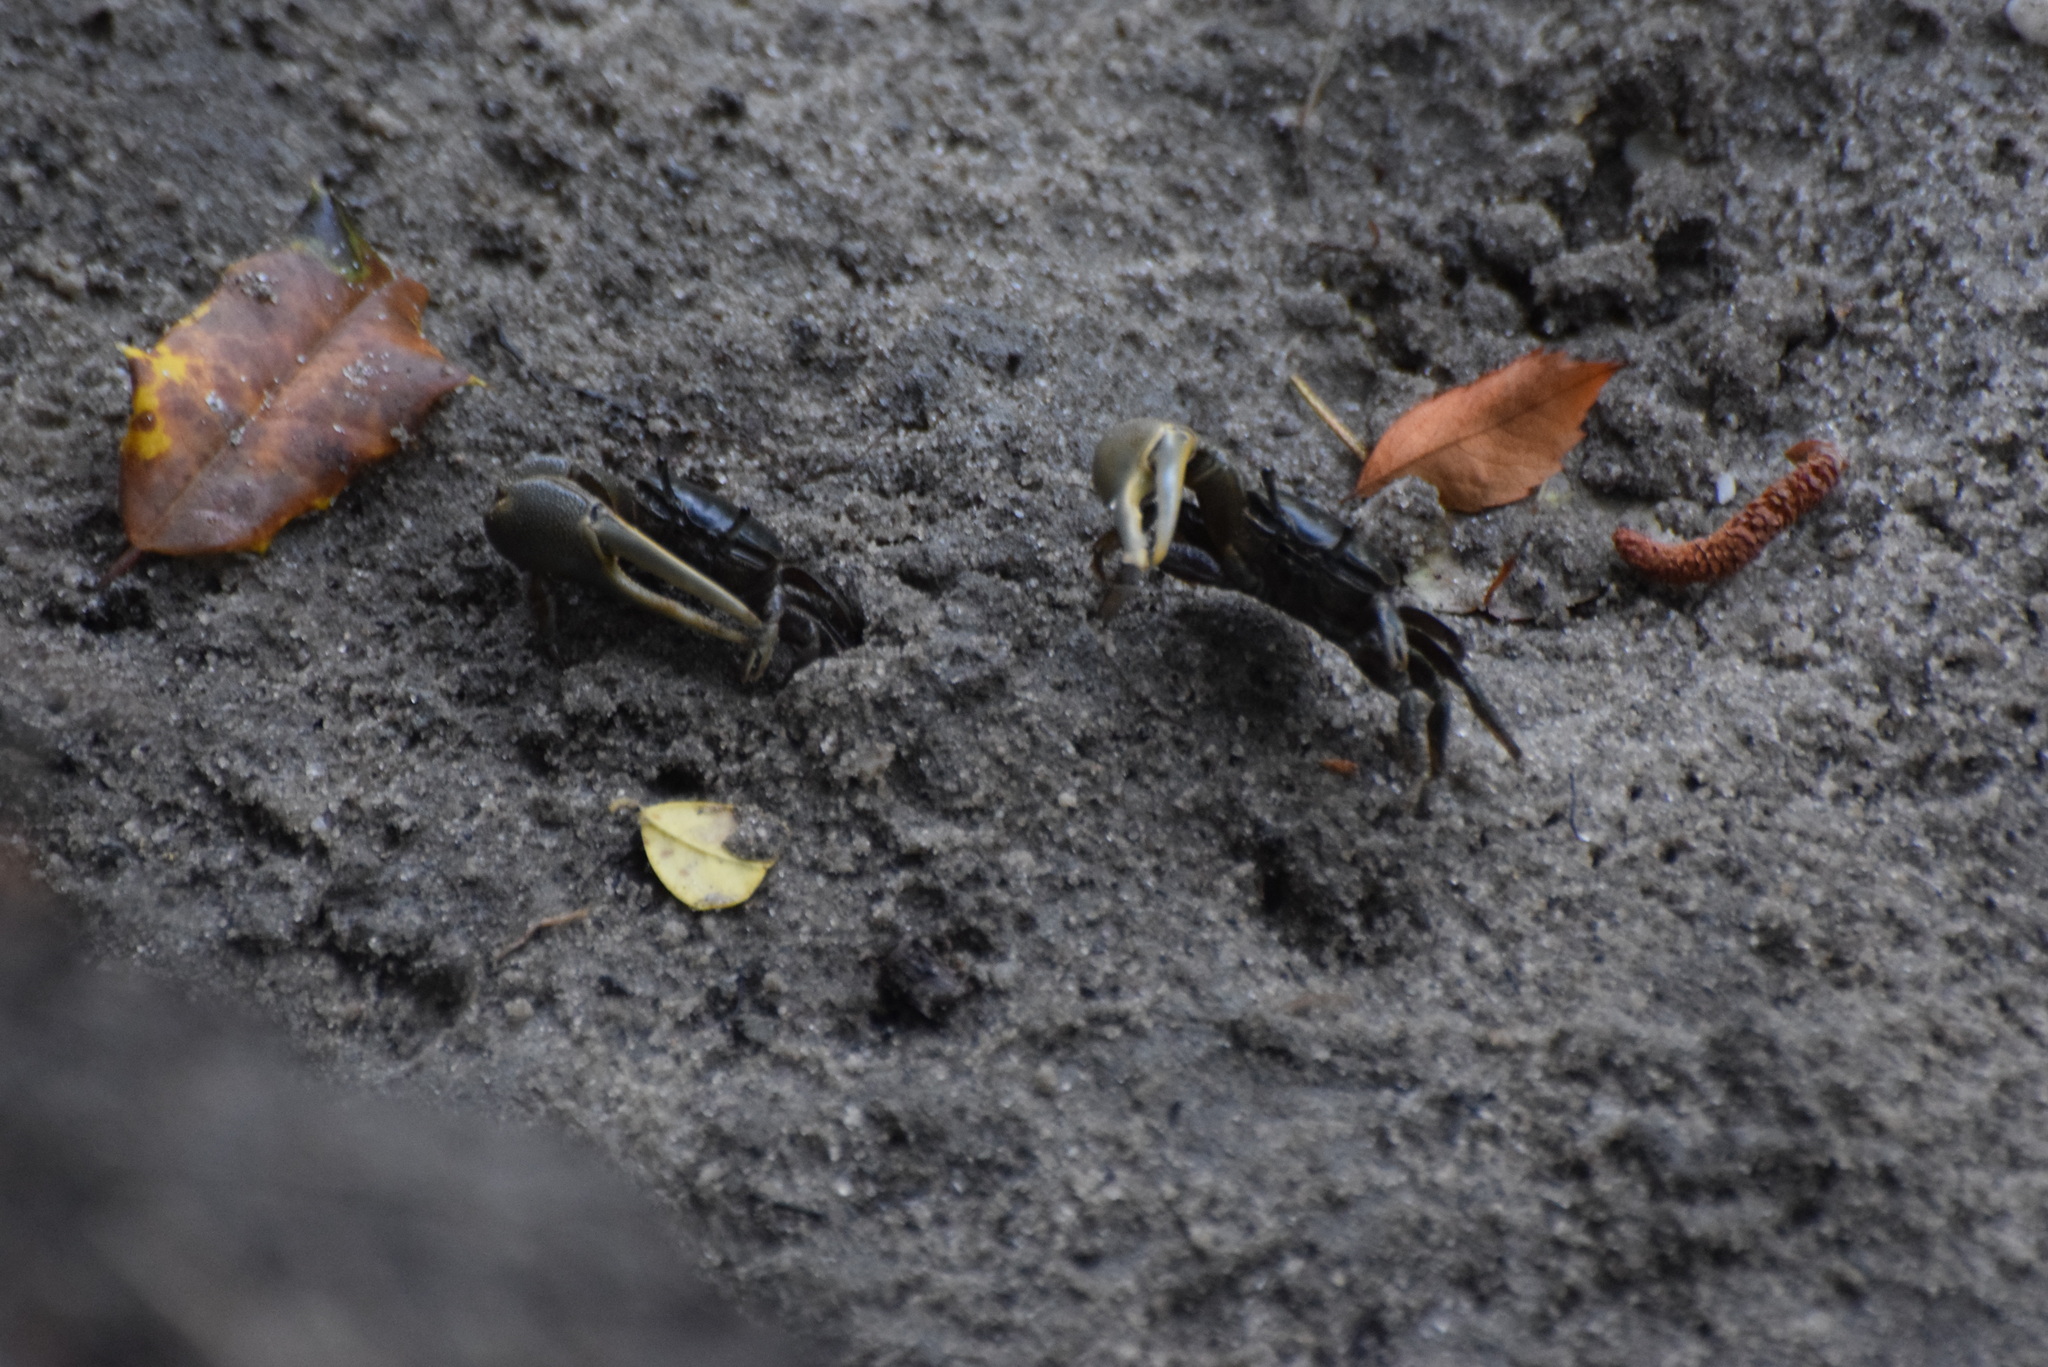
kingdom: Animalia
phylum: Arthropoda
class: Malacostraca
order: Decapoda
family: Ocypodidae
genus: Minuca
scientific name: Minuca pugnax
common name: Mud fiddler crab
